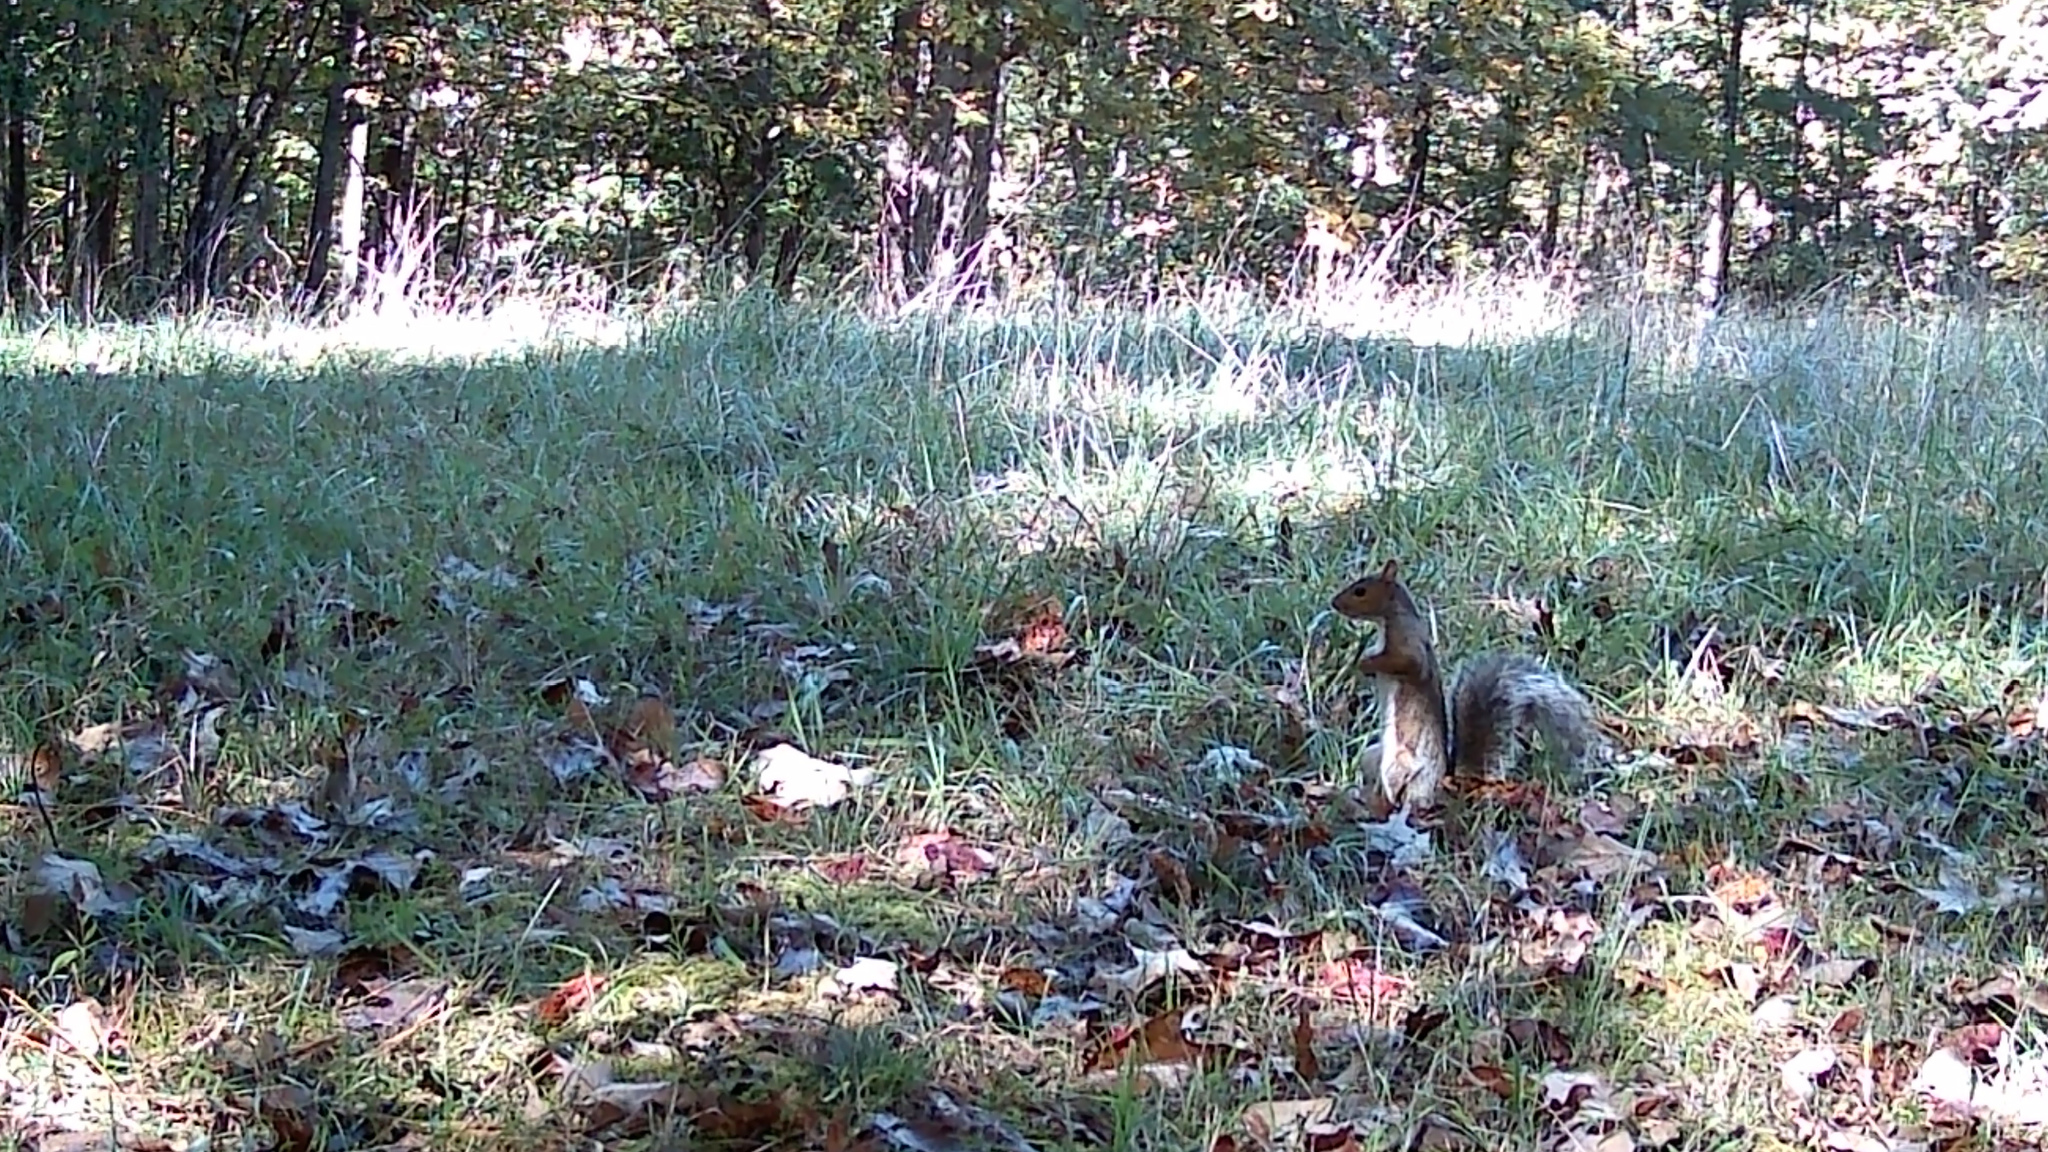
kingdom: Animalia
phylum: Chordata
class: Mammalia
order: Rodentia
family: Sciuridae
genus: Sciurus
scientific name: Sciurus carolinensis
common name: Eastern gray squirrel
